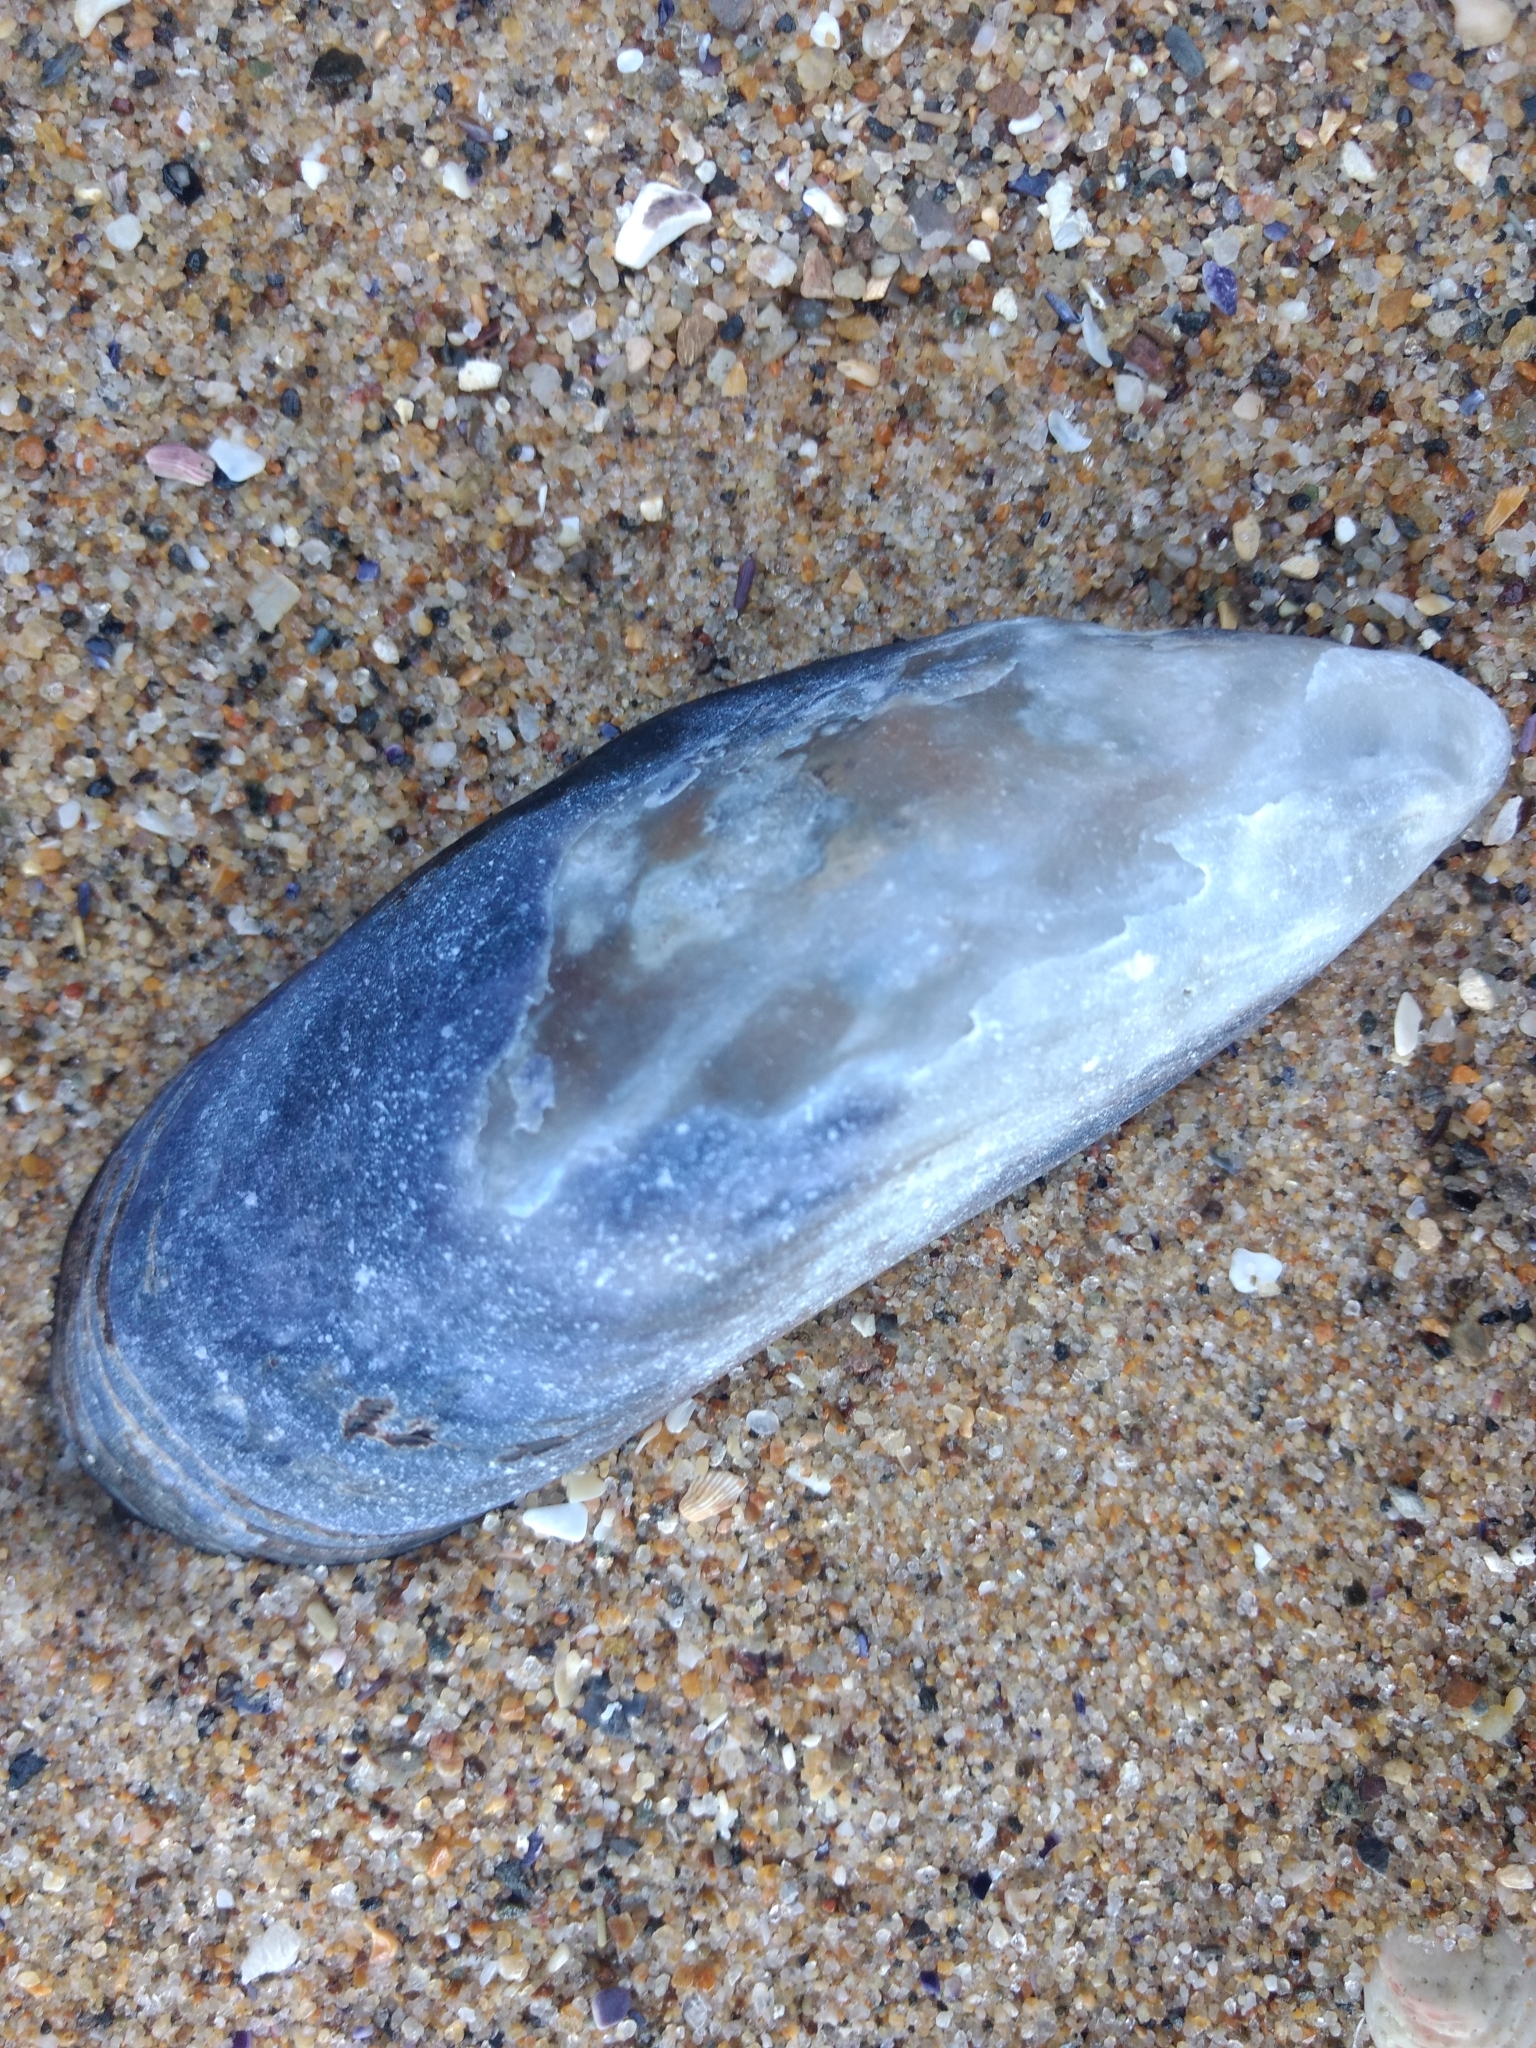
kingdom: Animalia
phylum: Mollusca
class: Bivalvia
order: Mytilida
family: Mytilidae
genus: Mytilus
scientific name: Mytilus californianus
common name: California mussel
